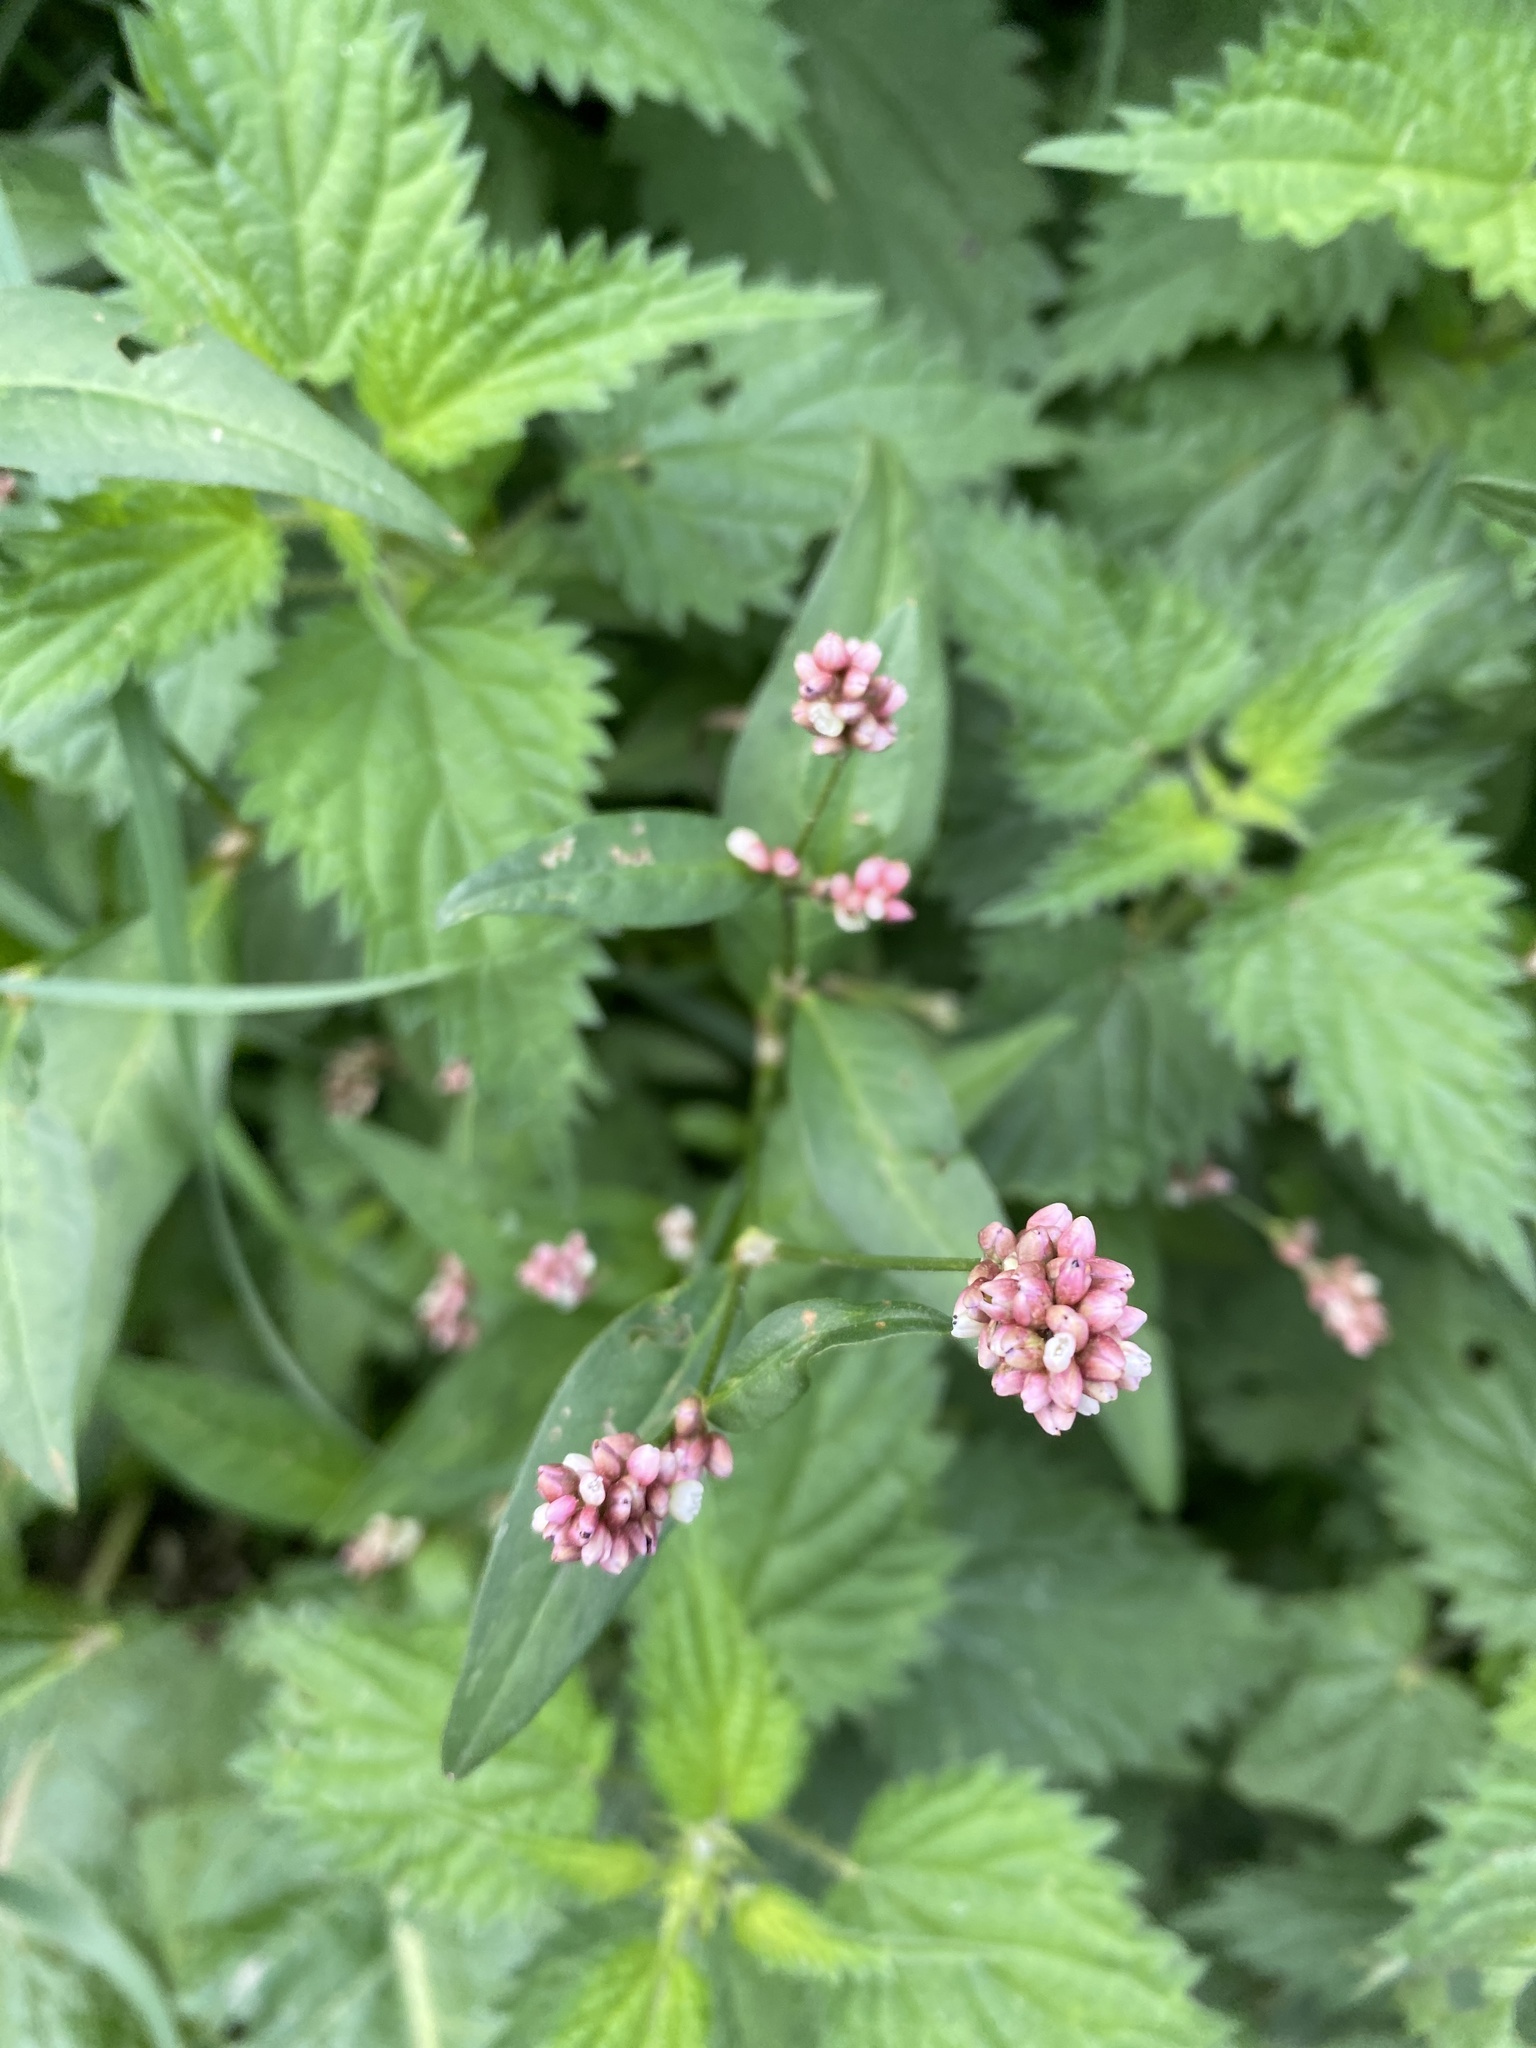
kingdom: Plantae
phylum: Tracheophyta
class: Magnoliopsida
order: Caryophyllales
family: Polygonaceae
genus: Persicaria
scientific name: Persicaria maculosa
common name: Redshank
